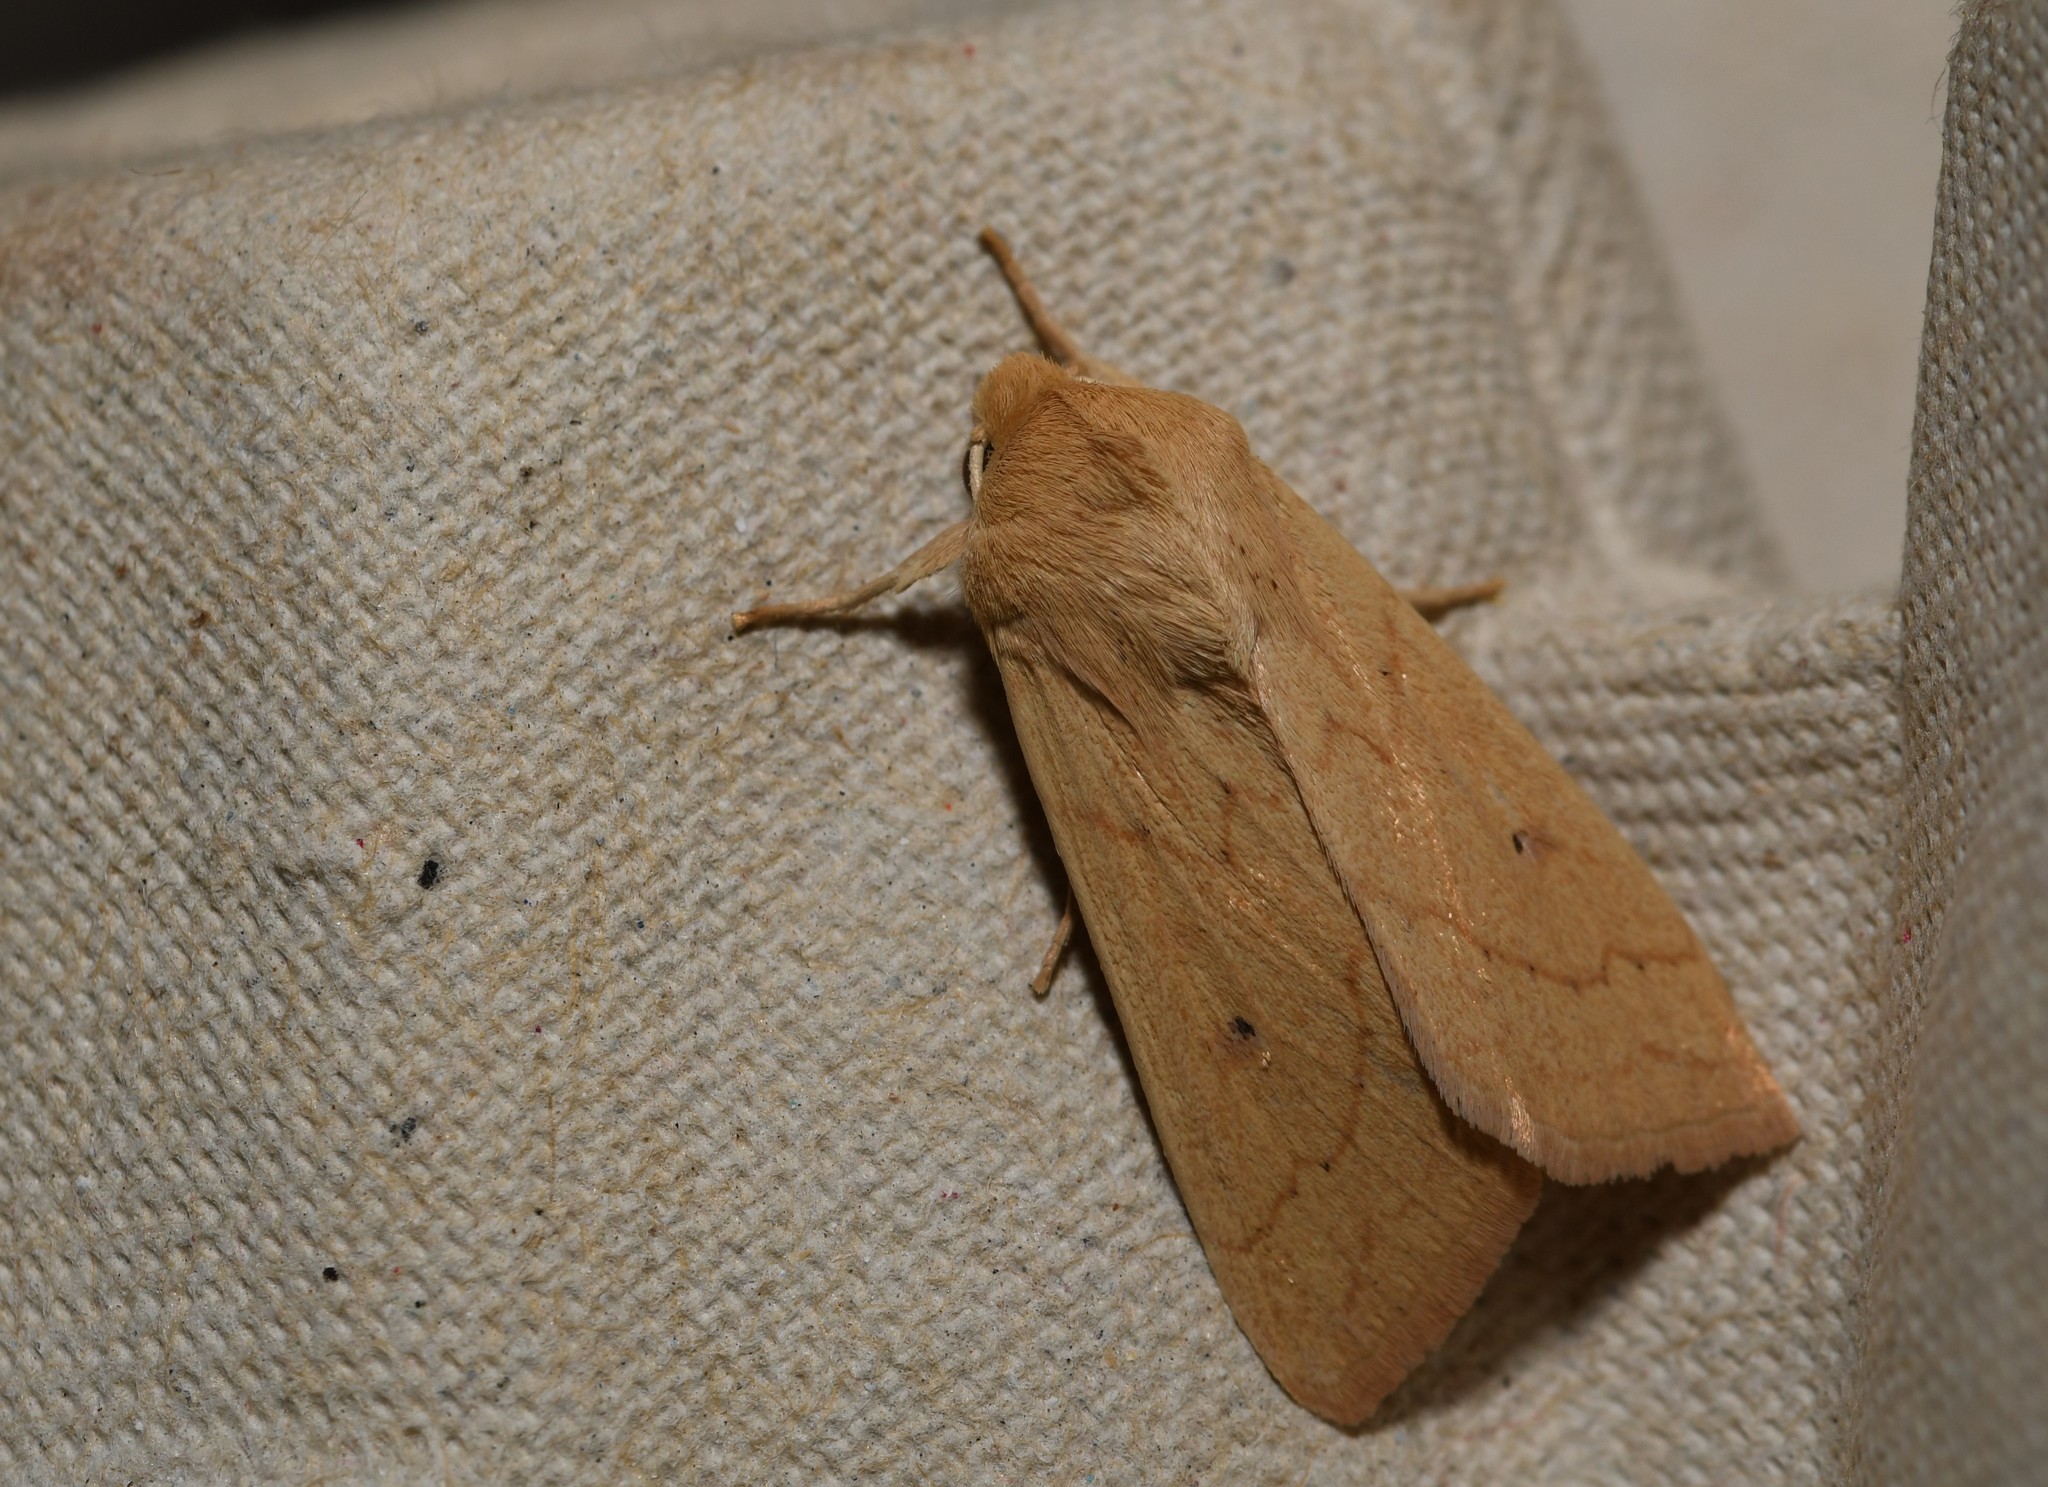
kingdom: Animalia
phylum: Arthropoda
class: Insecta
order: Lepidoptera
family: Noctuidae
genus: Mythimna
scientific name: Mythimna vitellina
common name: Delicate
